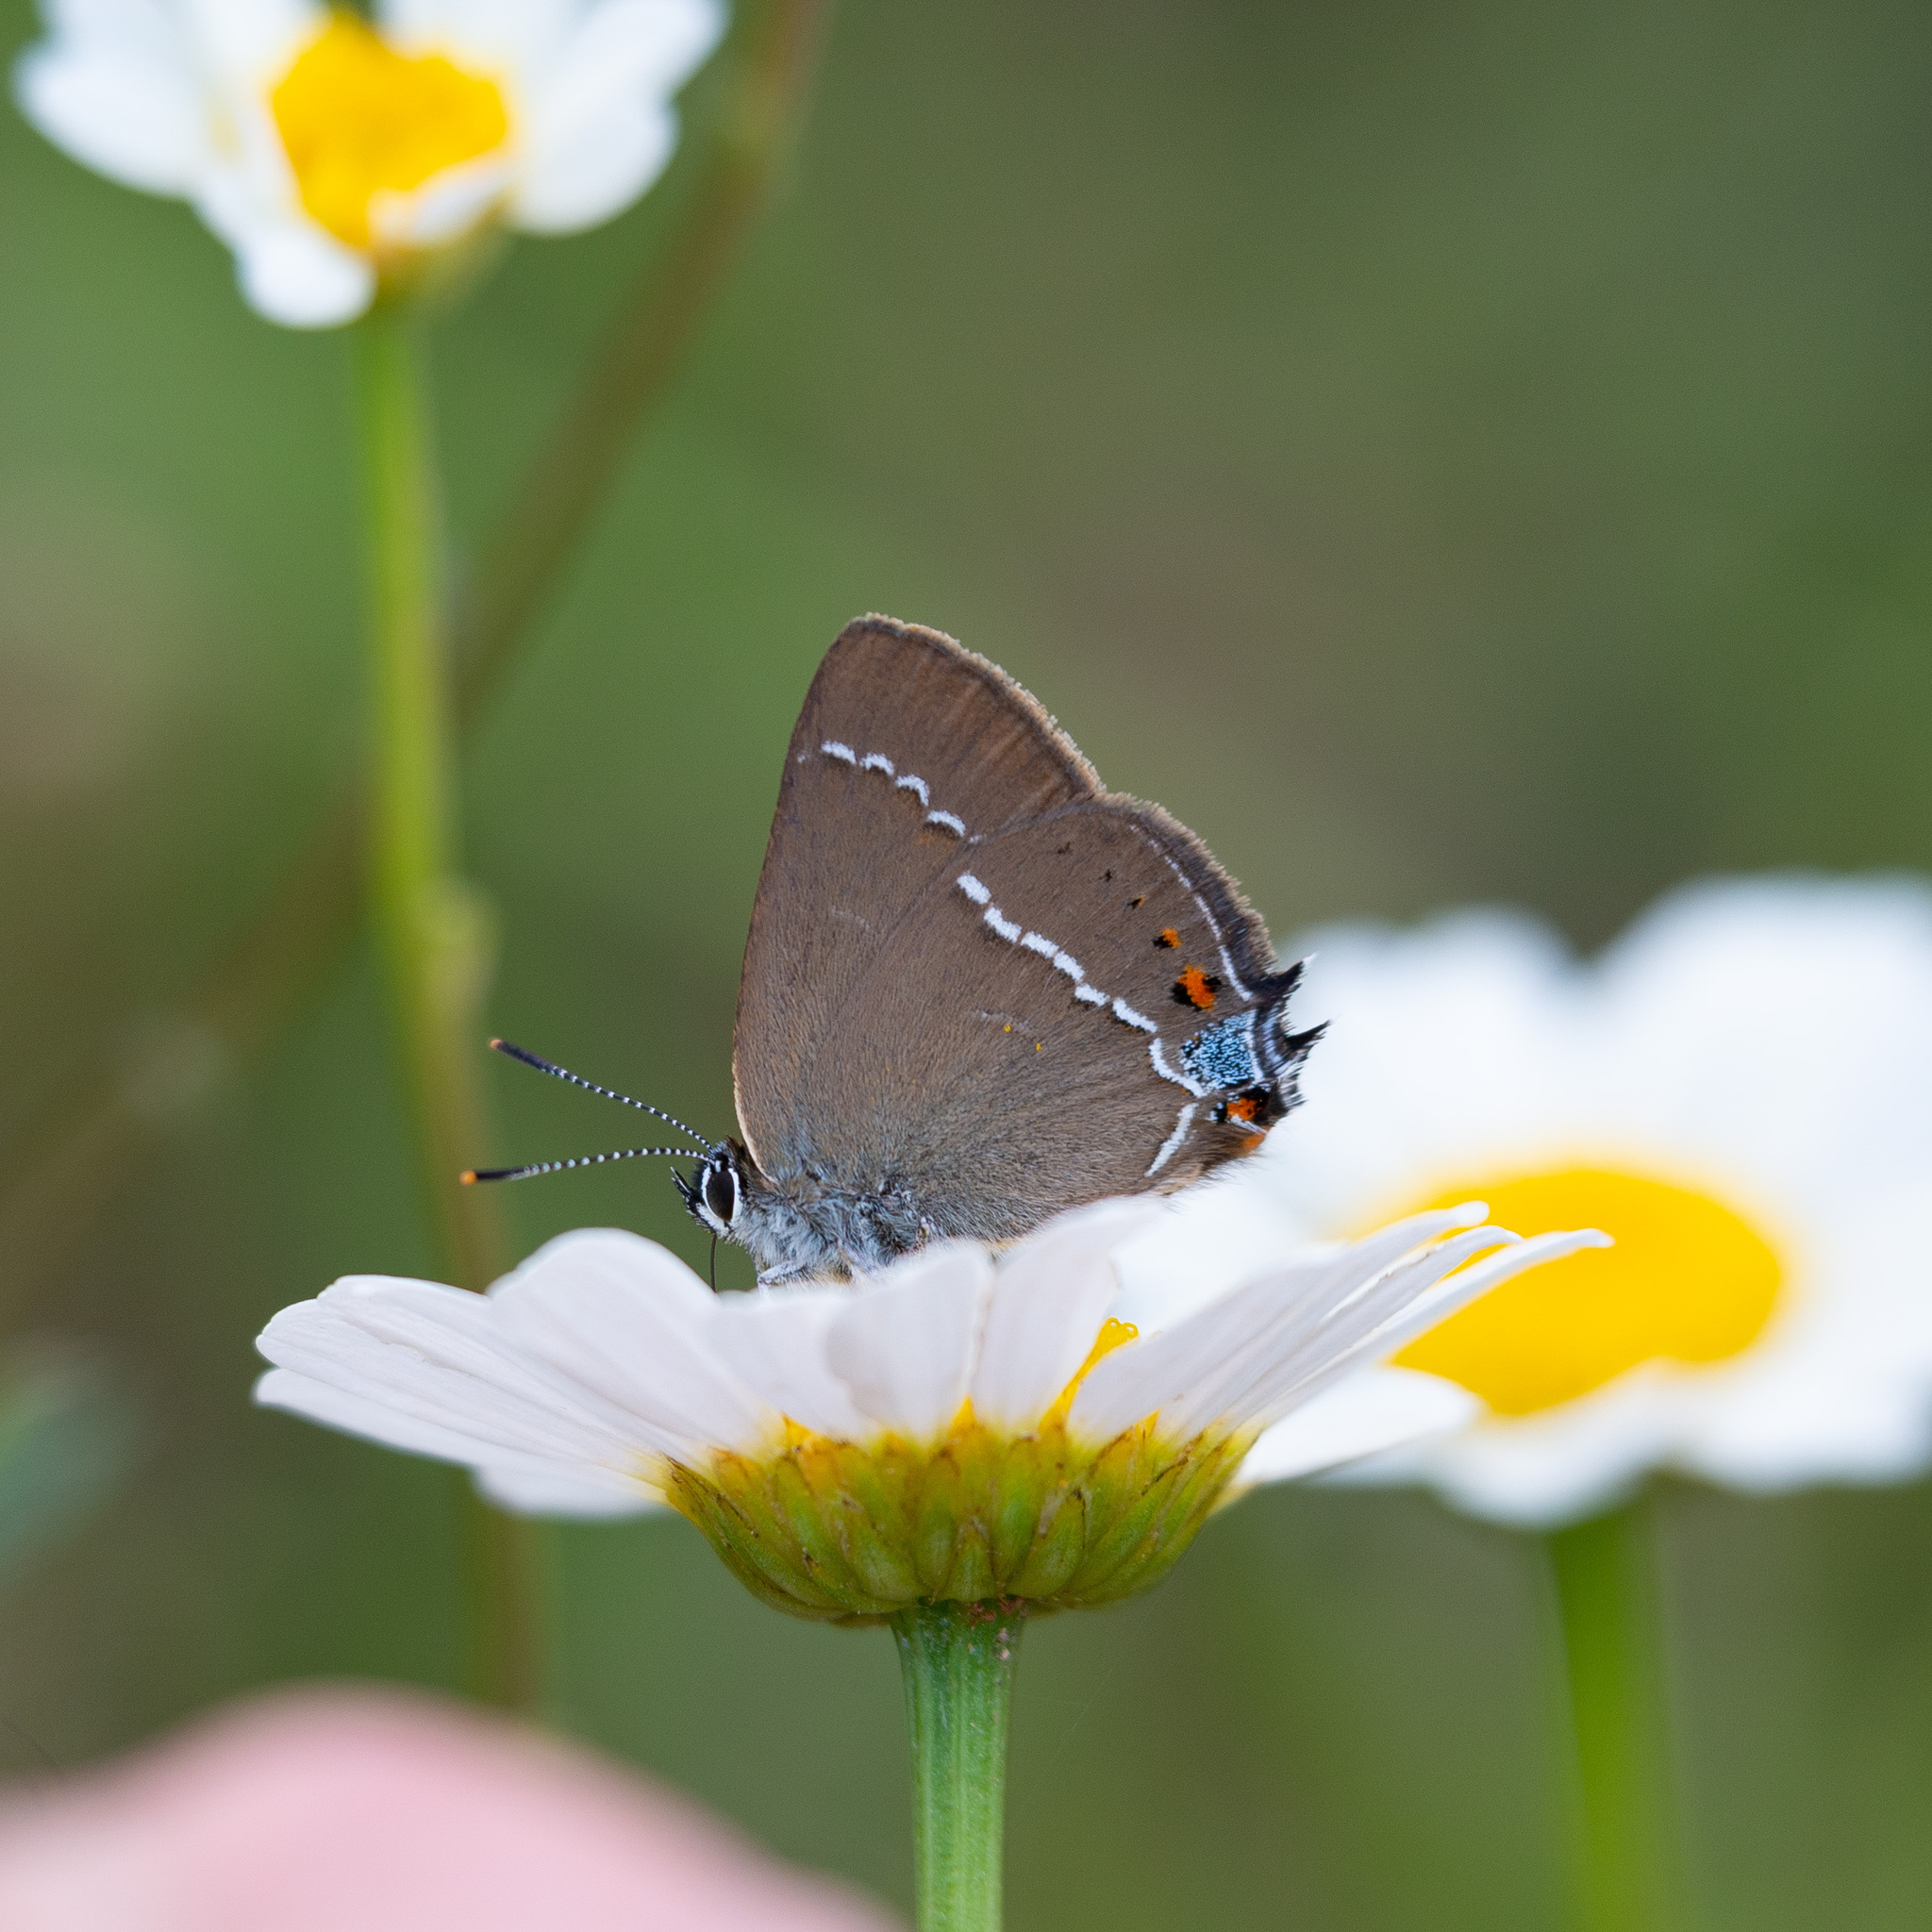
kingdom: Animalia
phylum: Arthropoda
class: Insecta
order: Lepidoptera
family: Lycaenidae
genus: Tuttiola
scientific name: Tuttiola spini
